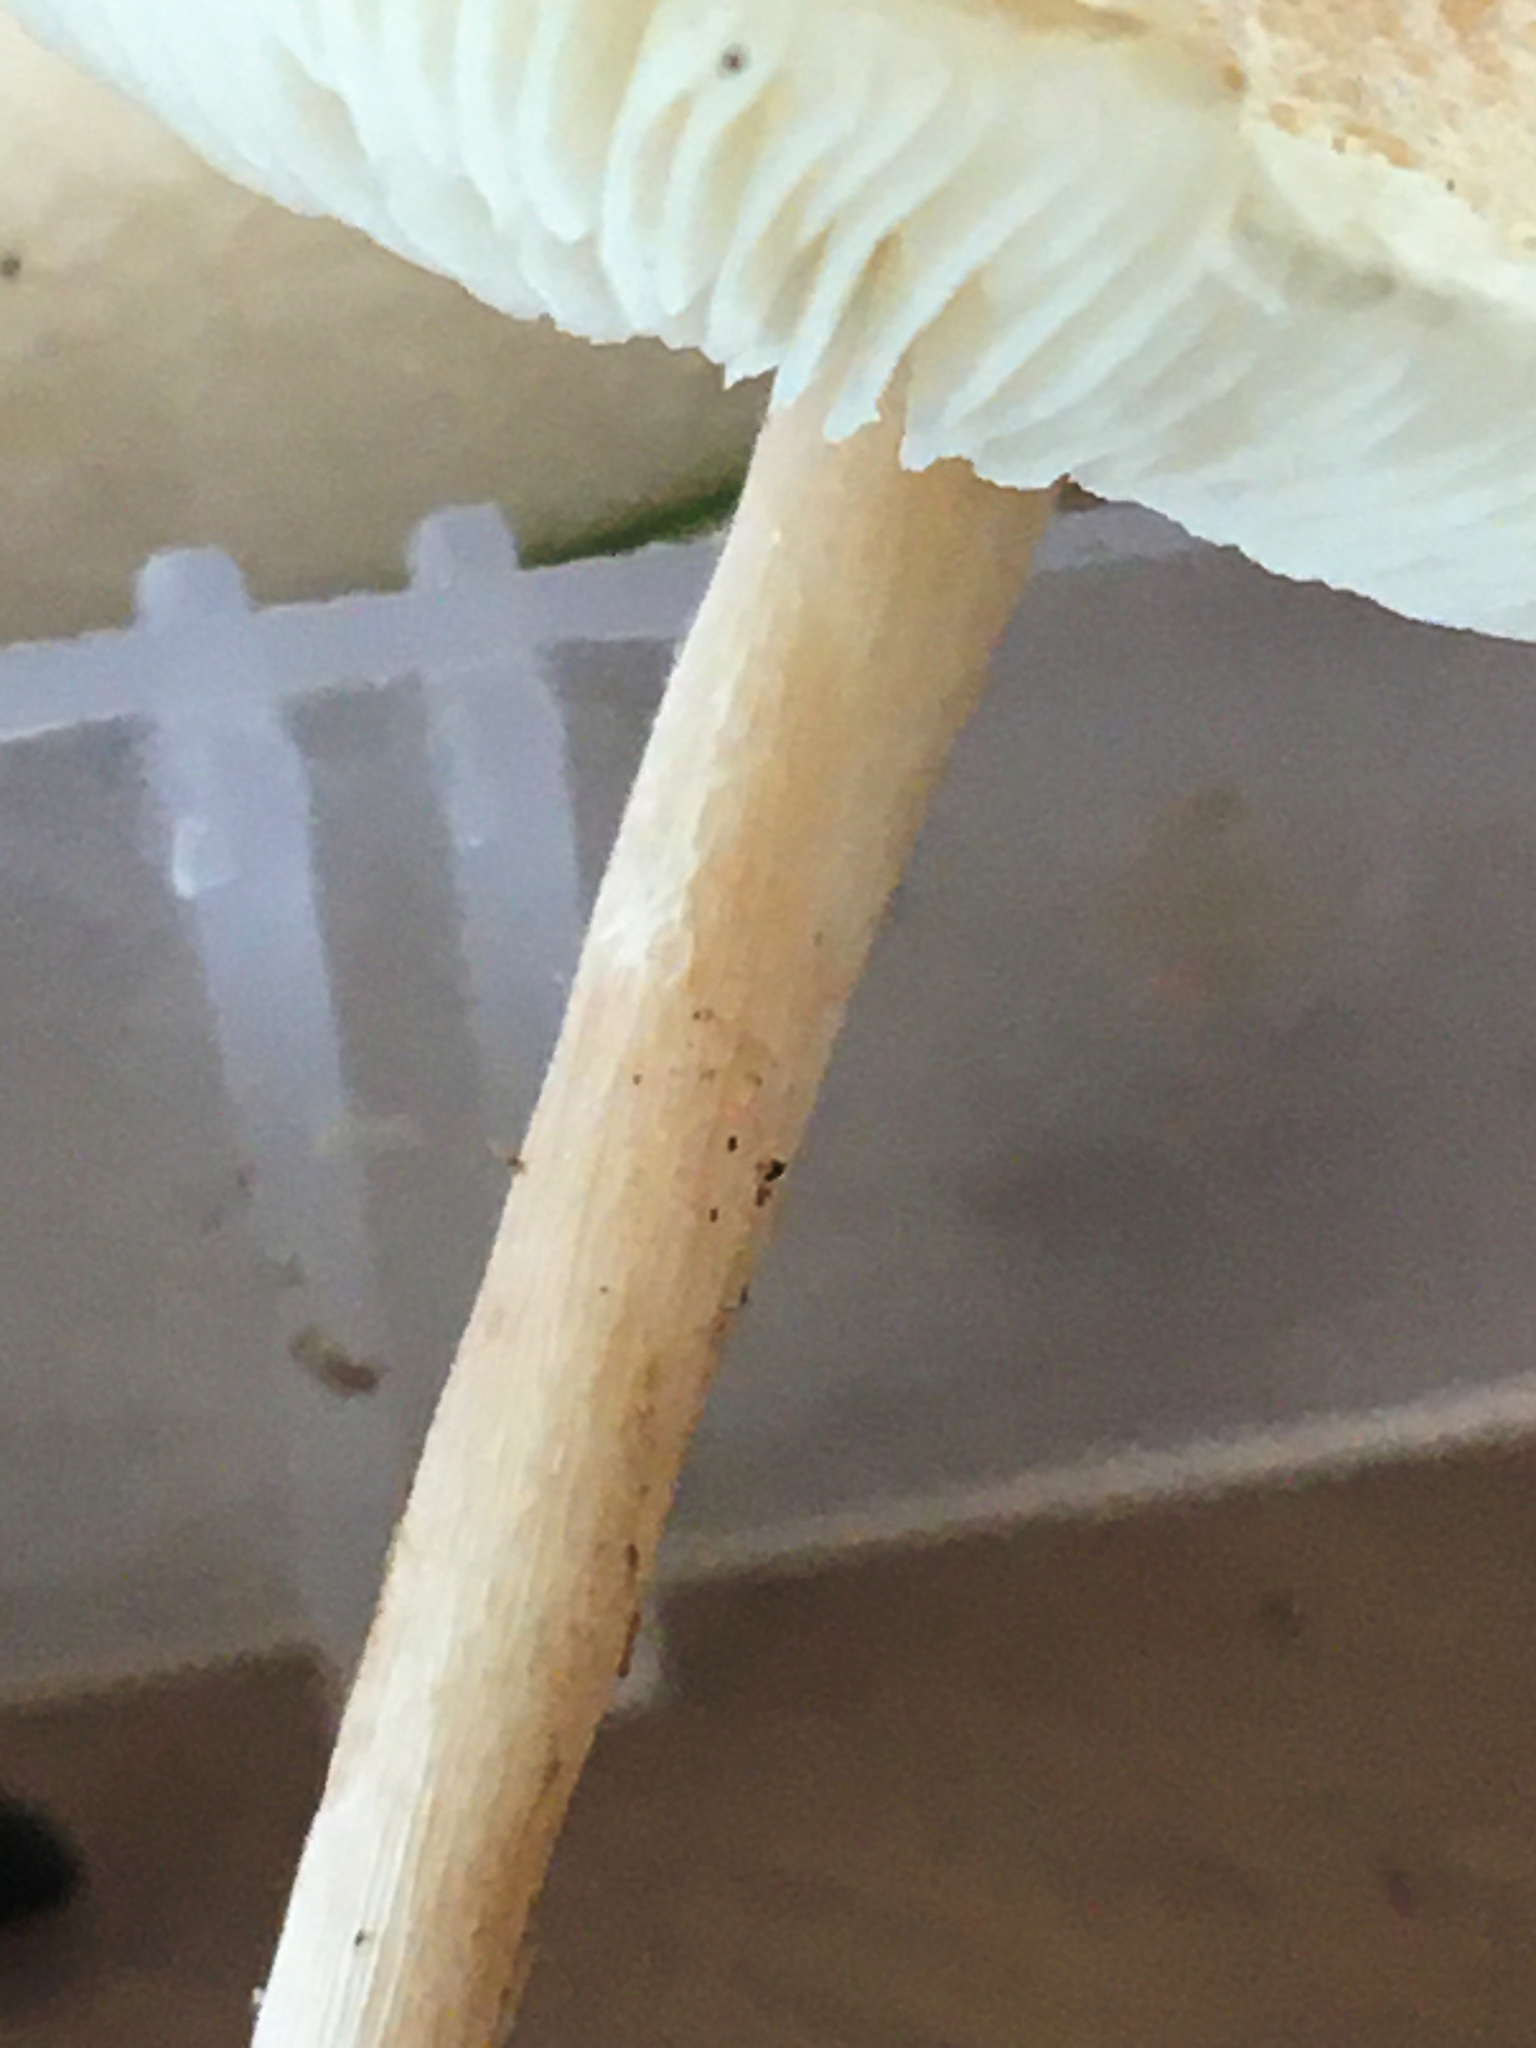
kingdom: Fungi
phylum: Basidiomycota
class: Agaricomycetes
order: Agaricales
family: Agaricaceae
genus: Lepiota
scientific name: Lepiota cristata
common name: Stinking dapperling
